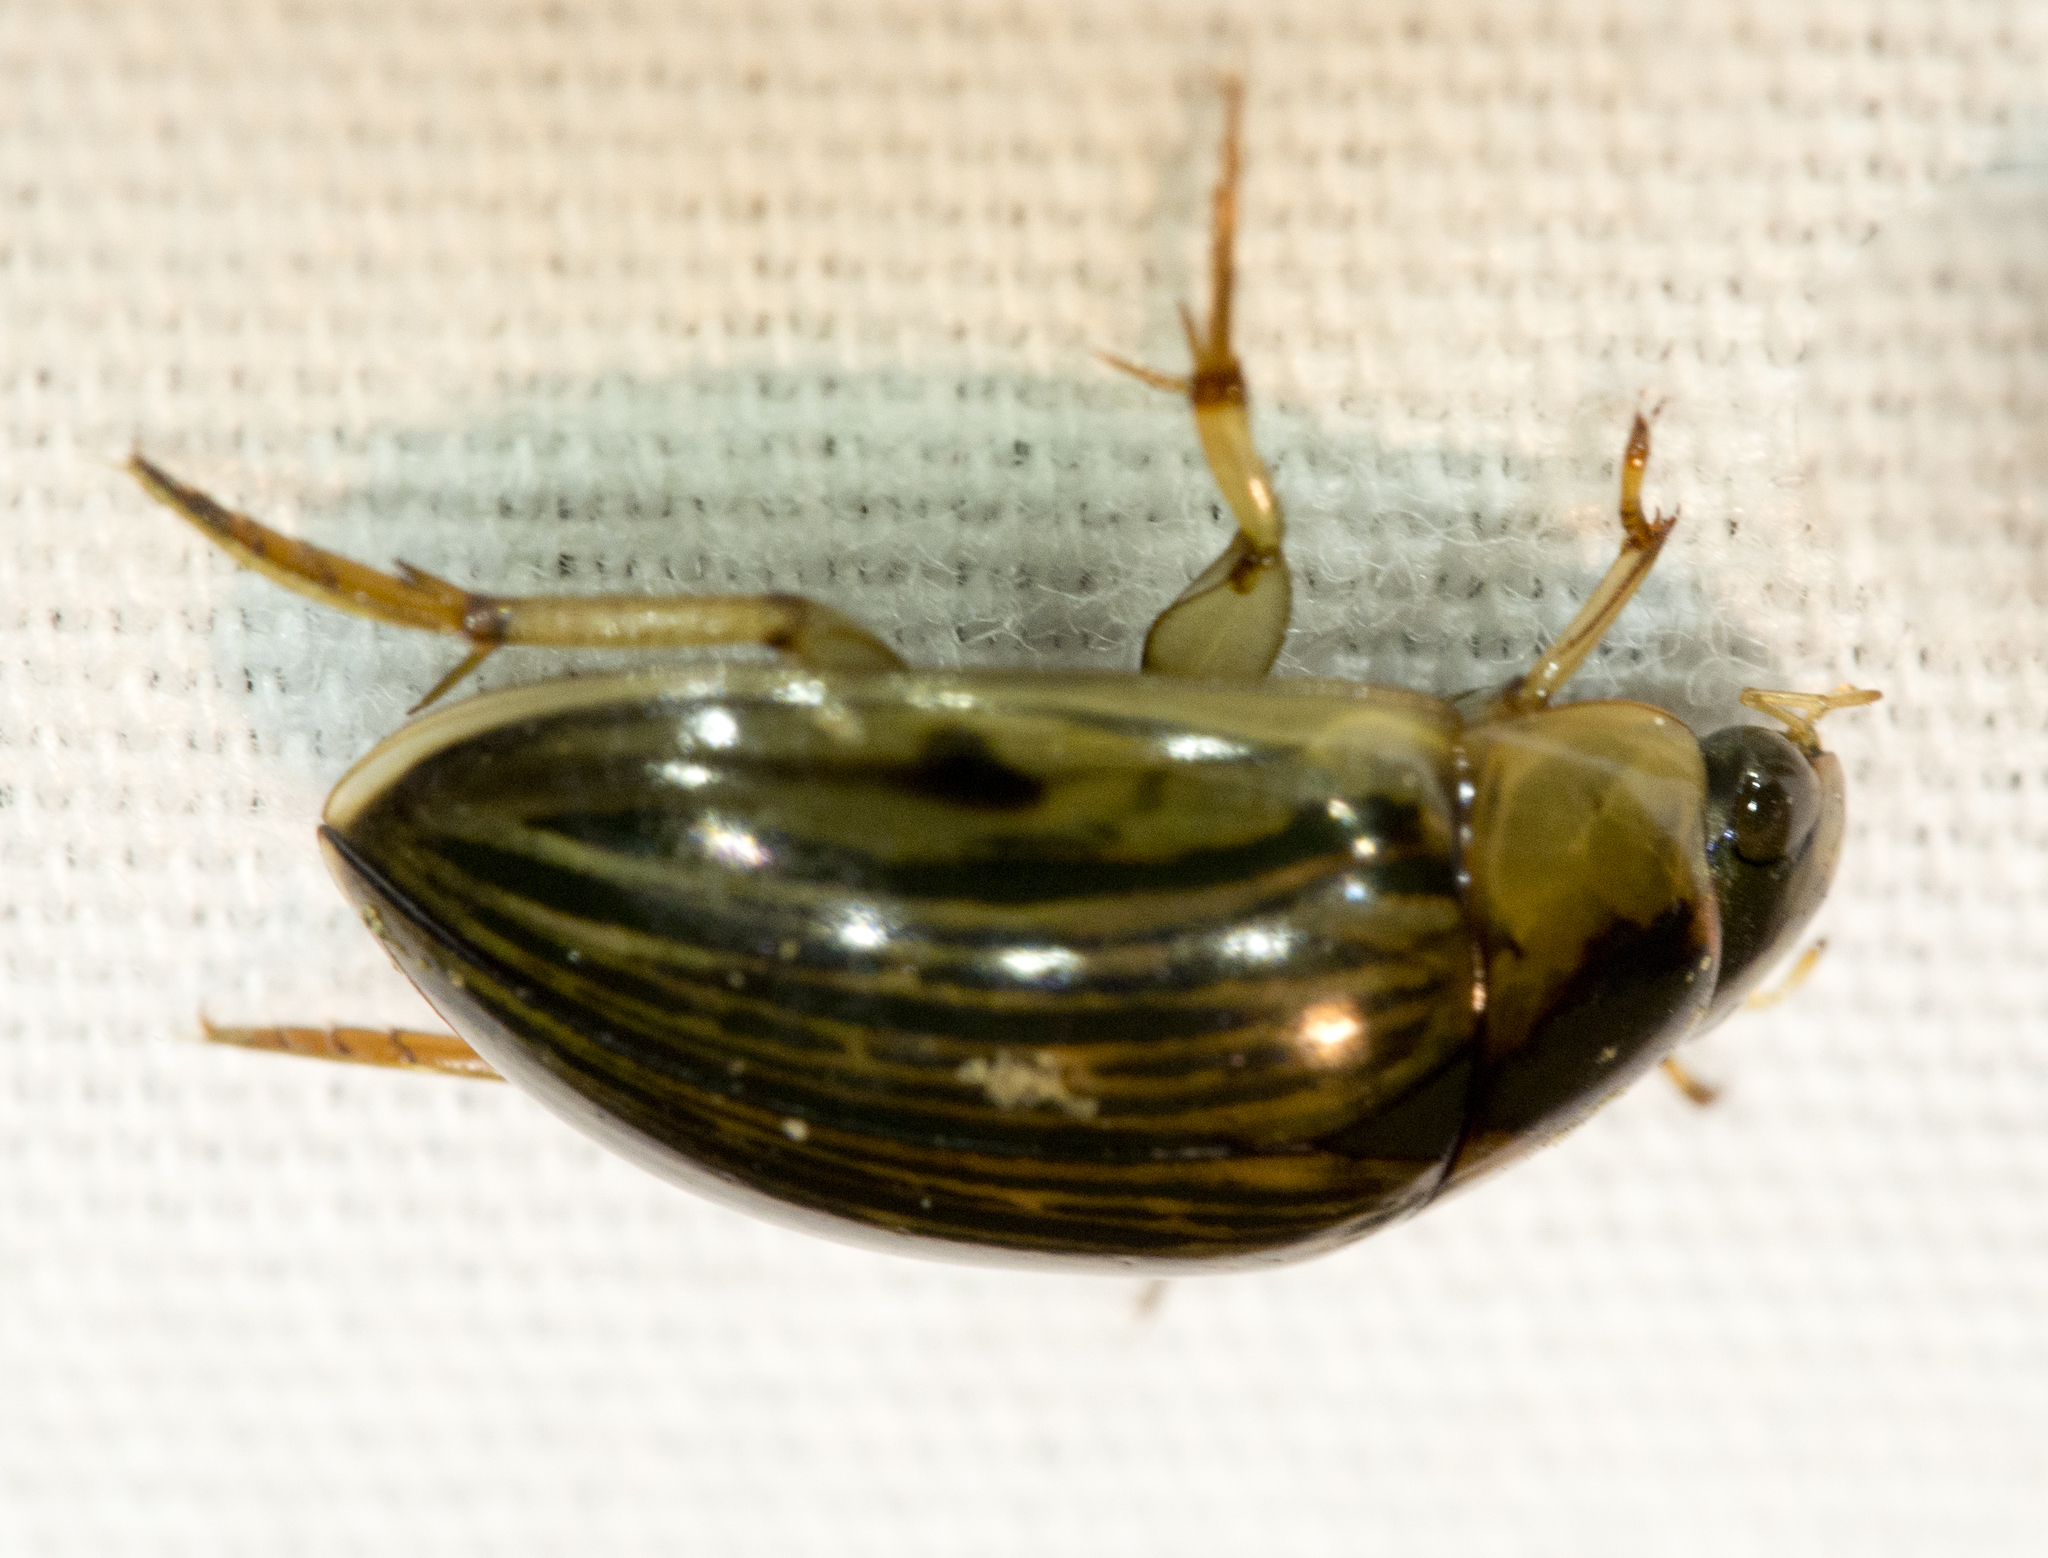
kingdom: Animalia
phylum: Arthropoda
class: Insecta
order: Coleoptera
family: Hydrophilidae
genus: Tropisternus
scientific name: Tropisternus collaris
